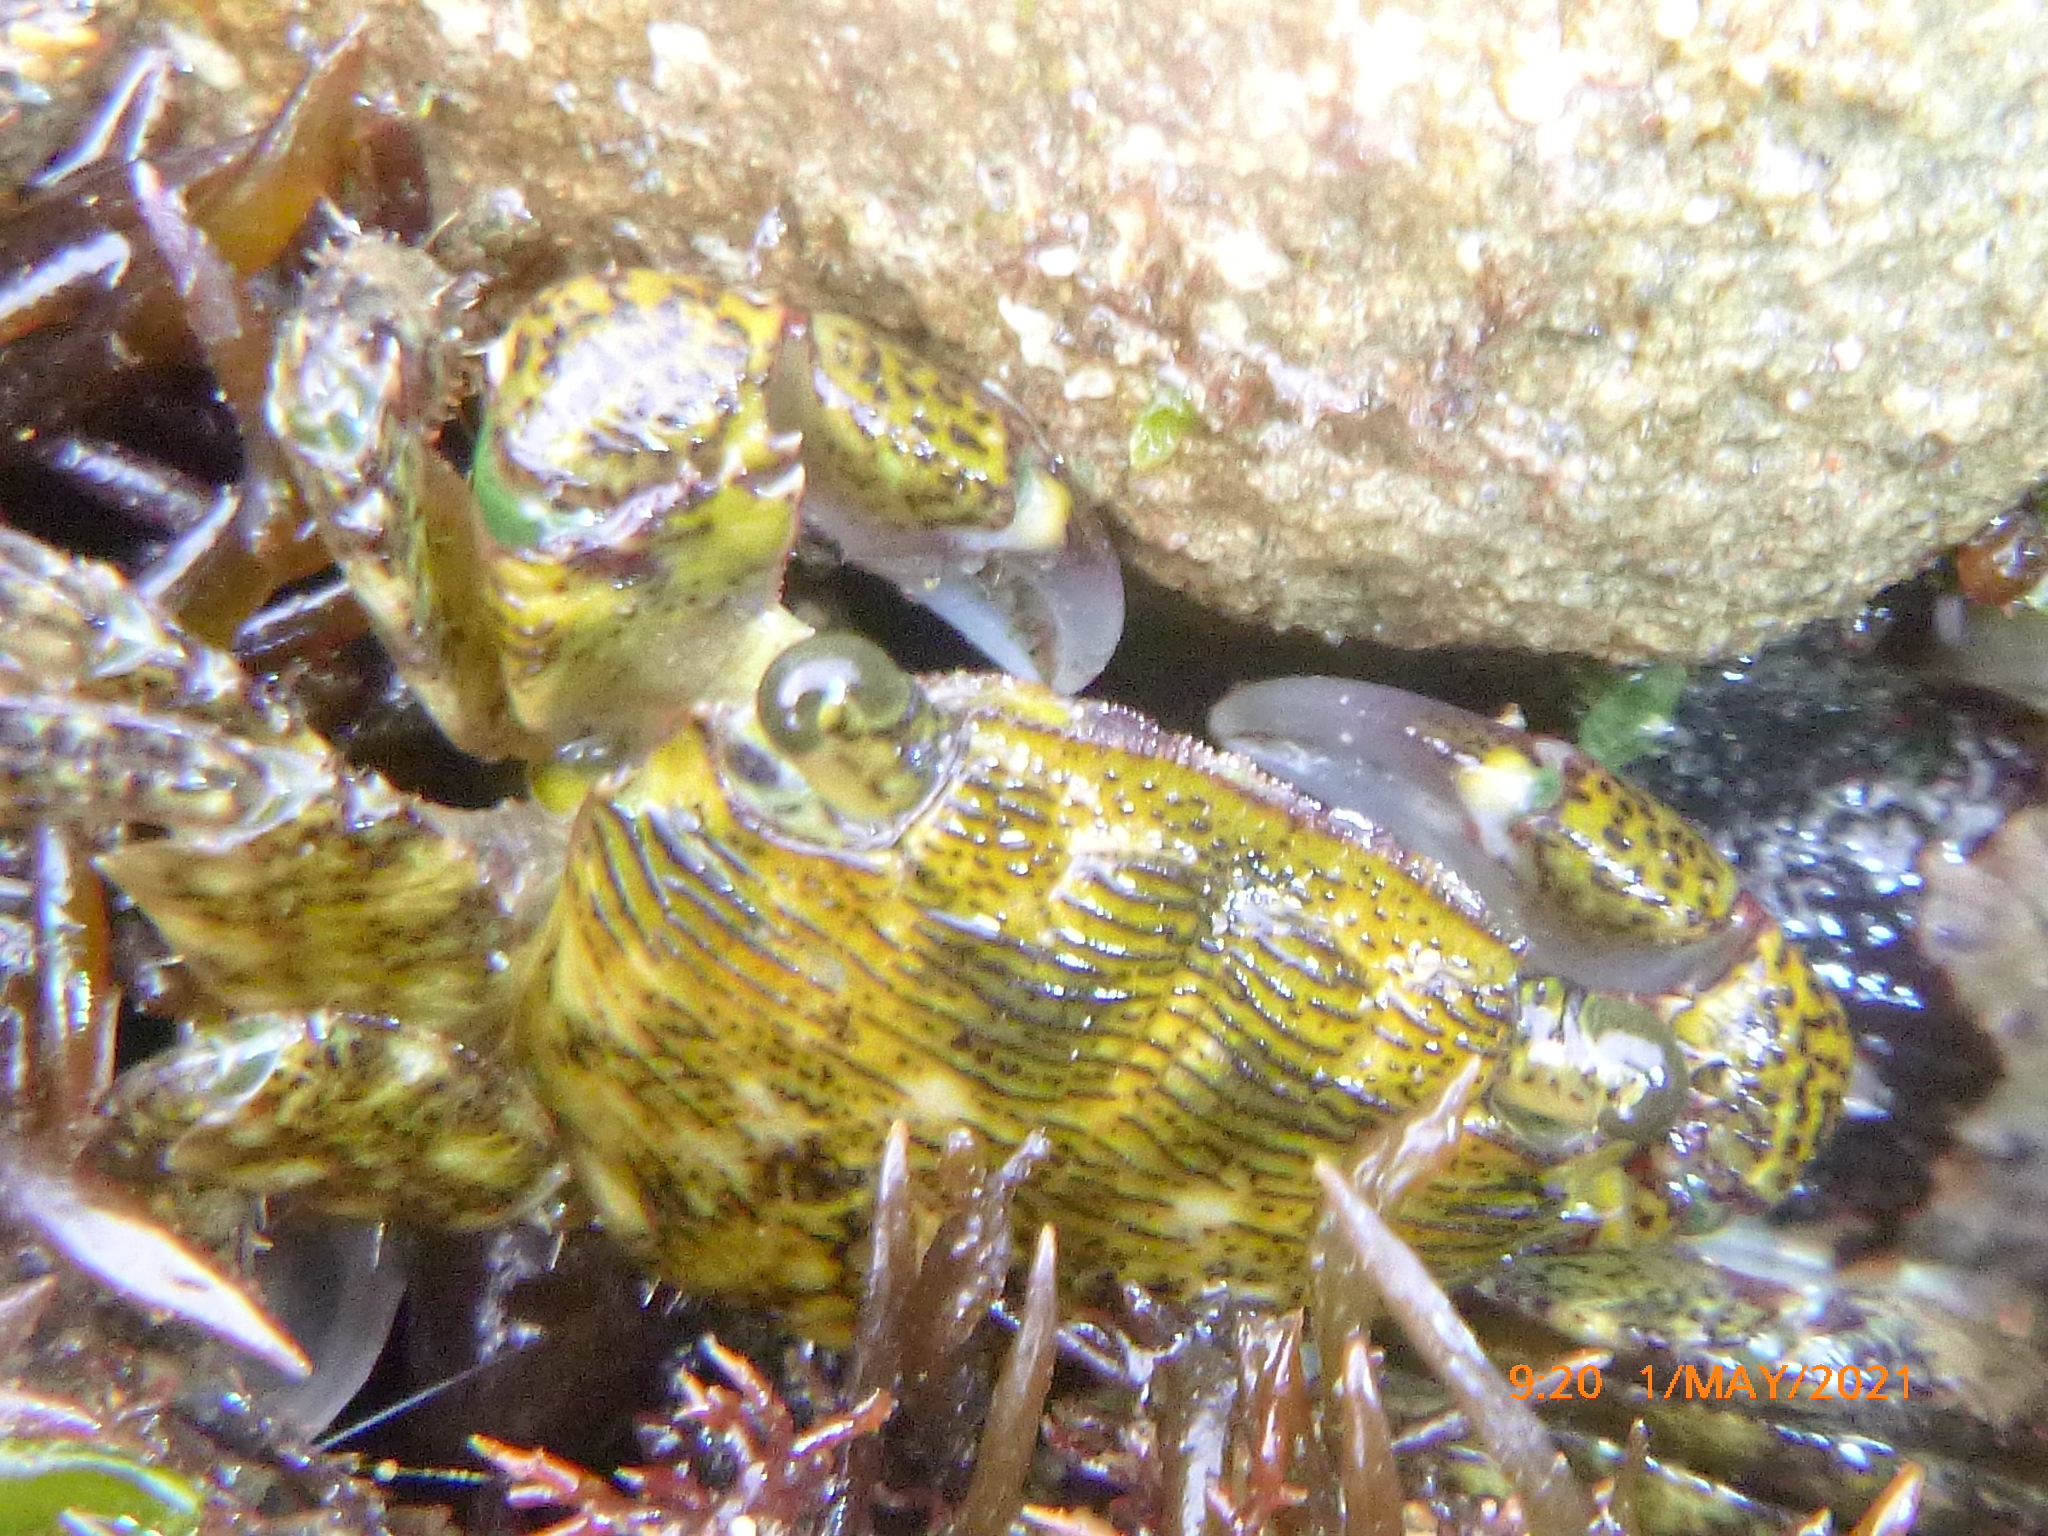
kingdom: Animalia
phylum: Arthropoda
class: Malacostraca
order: Decapoda
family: Grapsidae
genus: Pachygrapsus
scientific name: Pachygrapsus crassipes
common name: Striped shore crab
